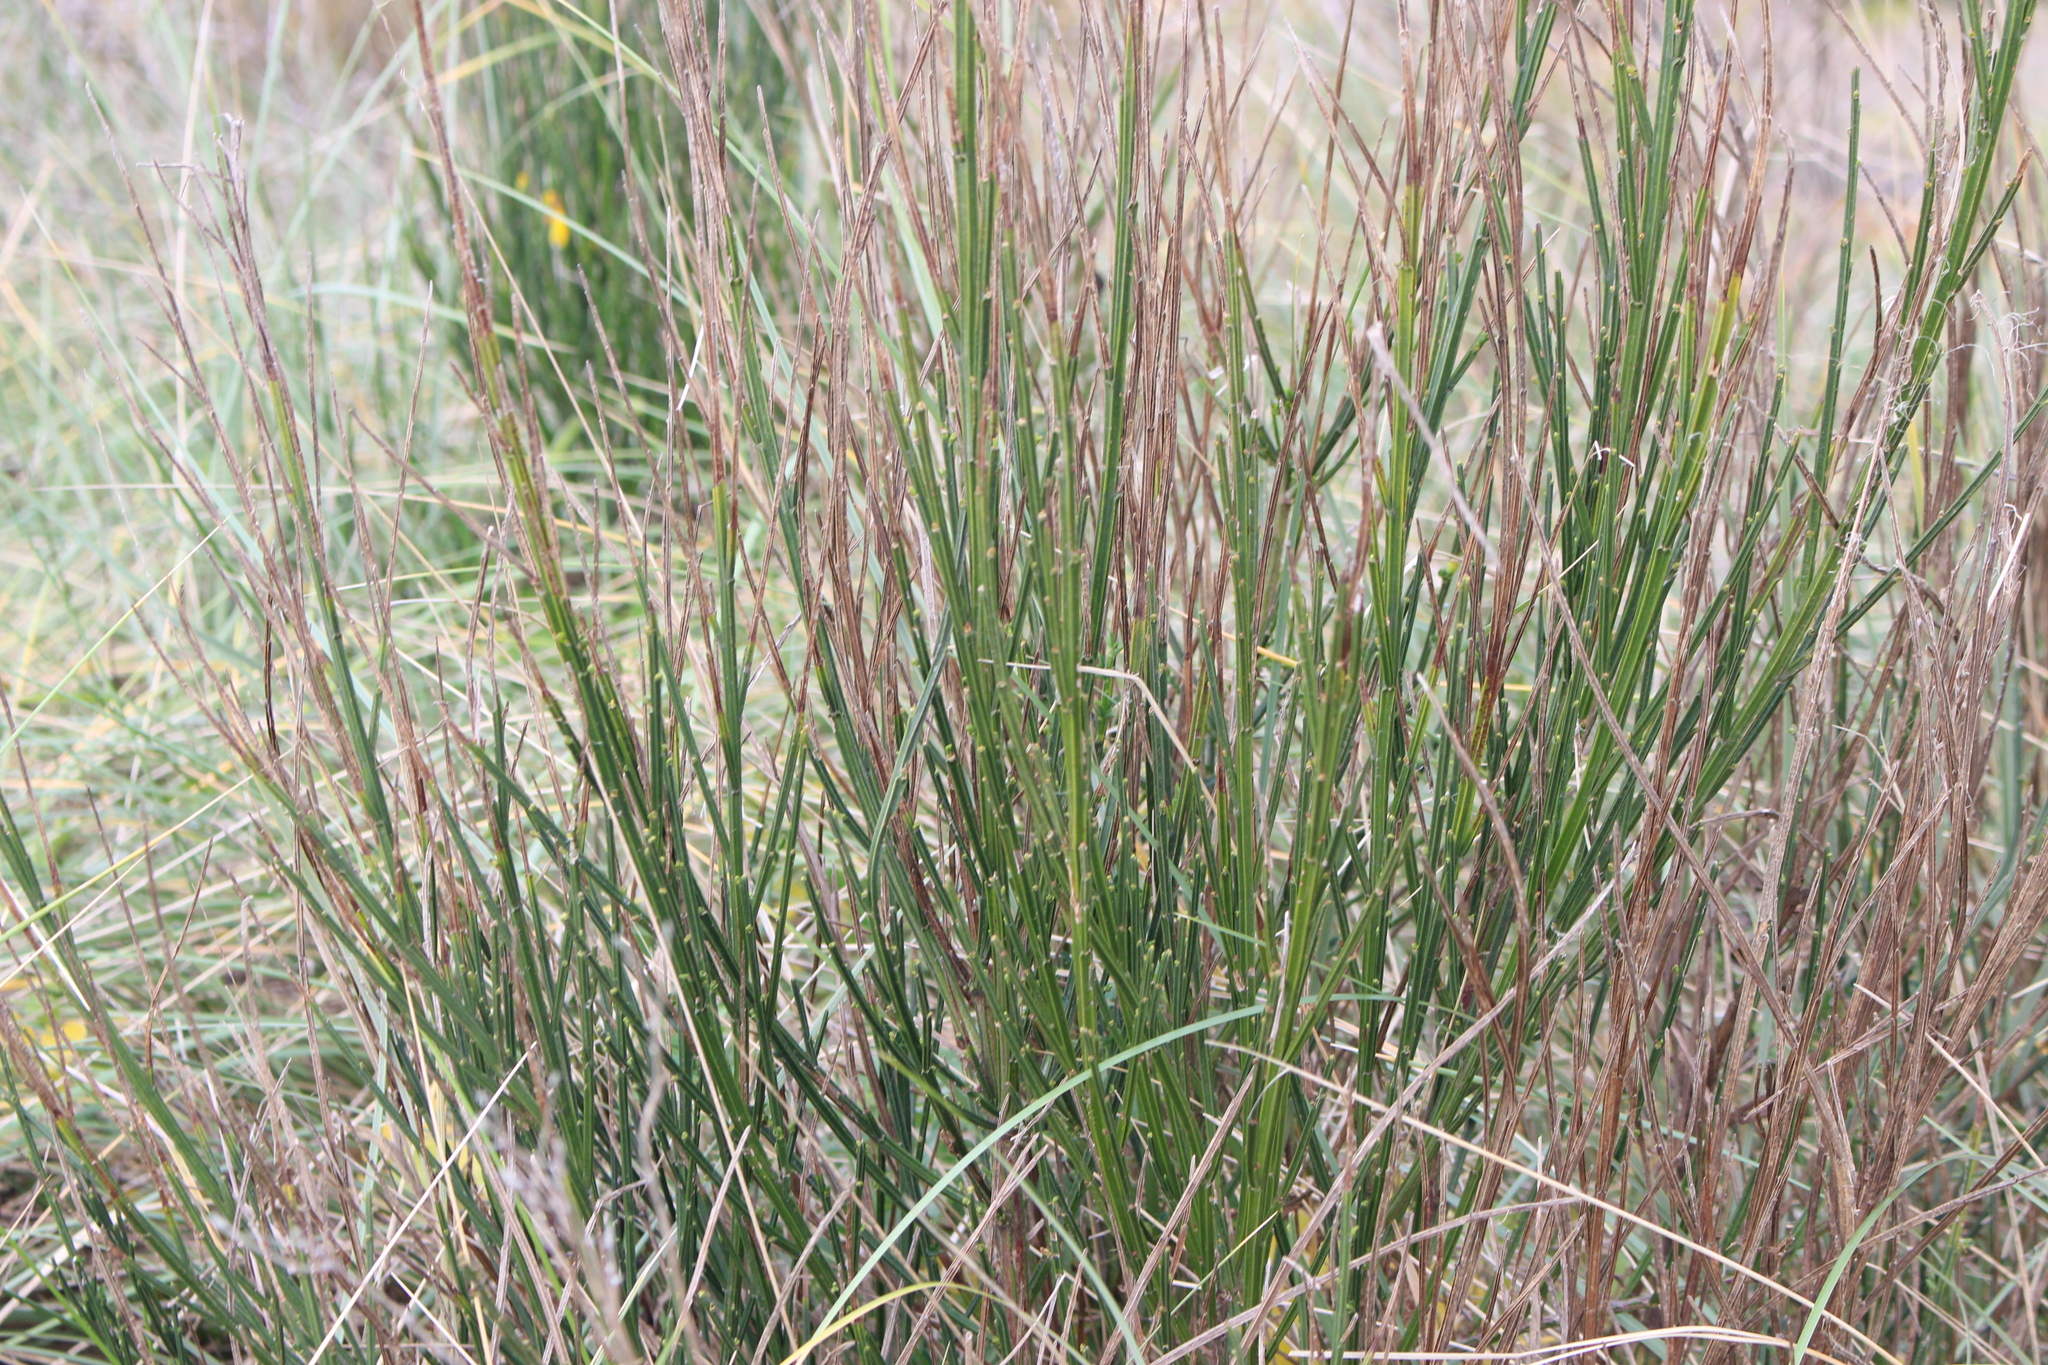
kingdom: Plantae
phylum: Tracheophyta
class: Magnoliopsida
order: Fabales
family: Fabaceae
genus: Cytisus
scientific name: Cytisus scoparius
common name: Scotch broom
